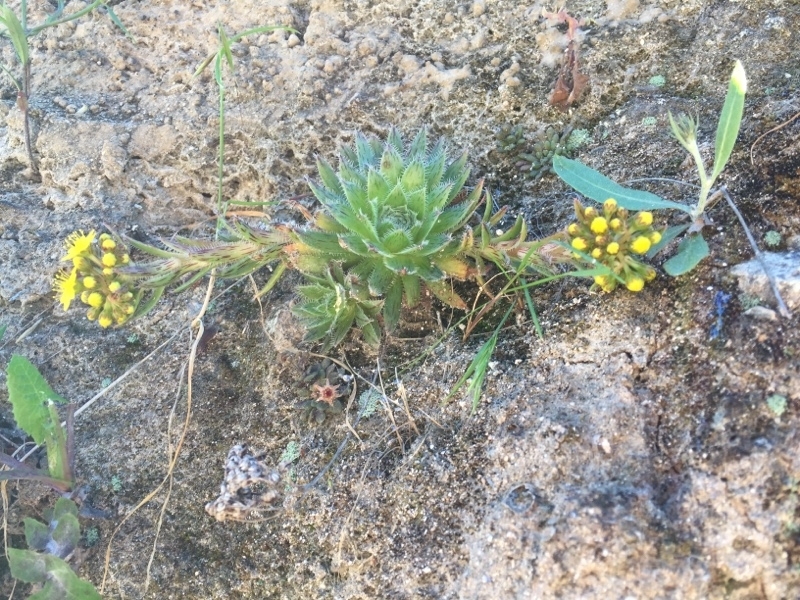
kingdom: Plantae
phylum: Tracheophyta
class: Magnoliopsida
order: Saxifragales
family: Crassulaceae
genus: Aeonium
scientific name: Aeonium simsii
